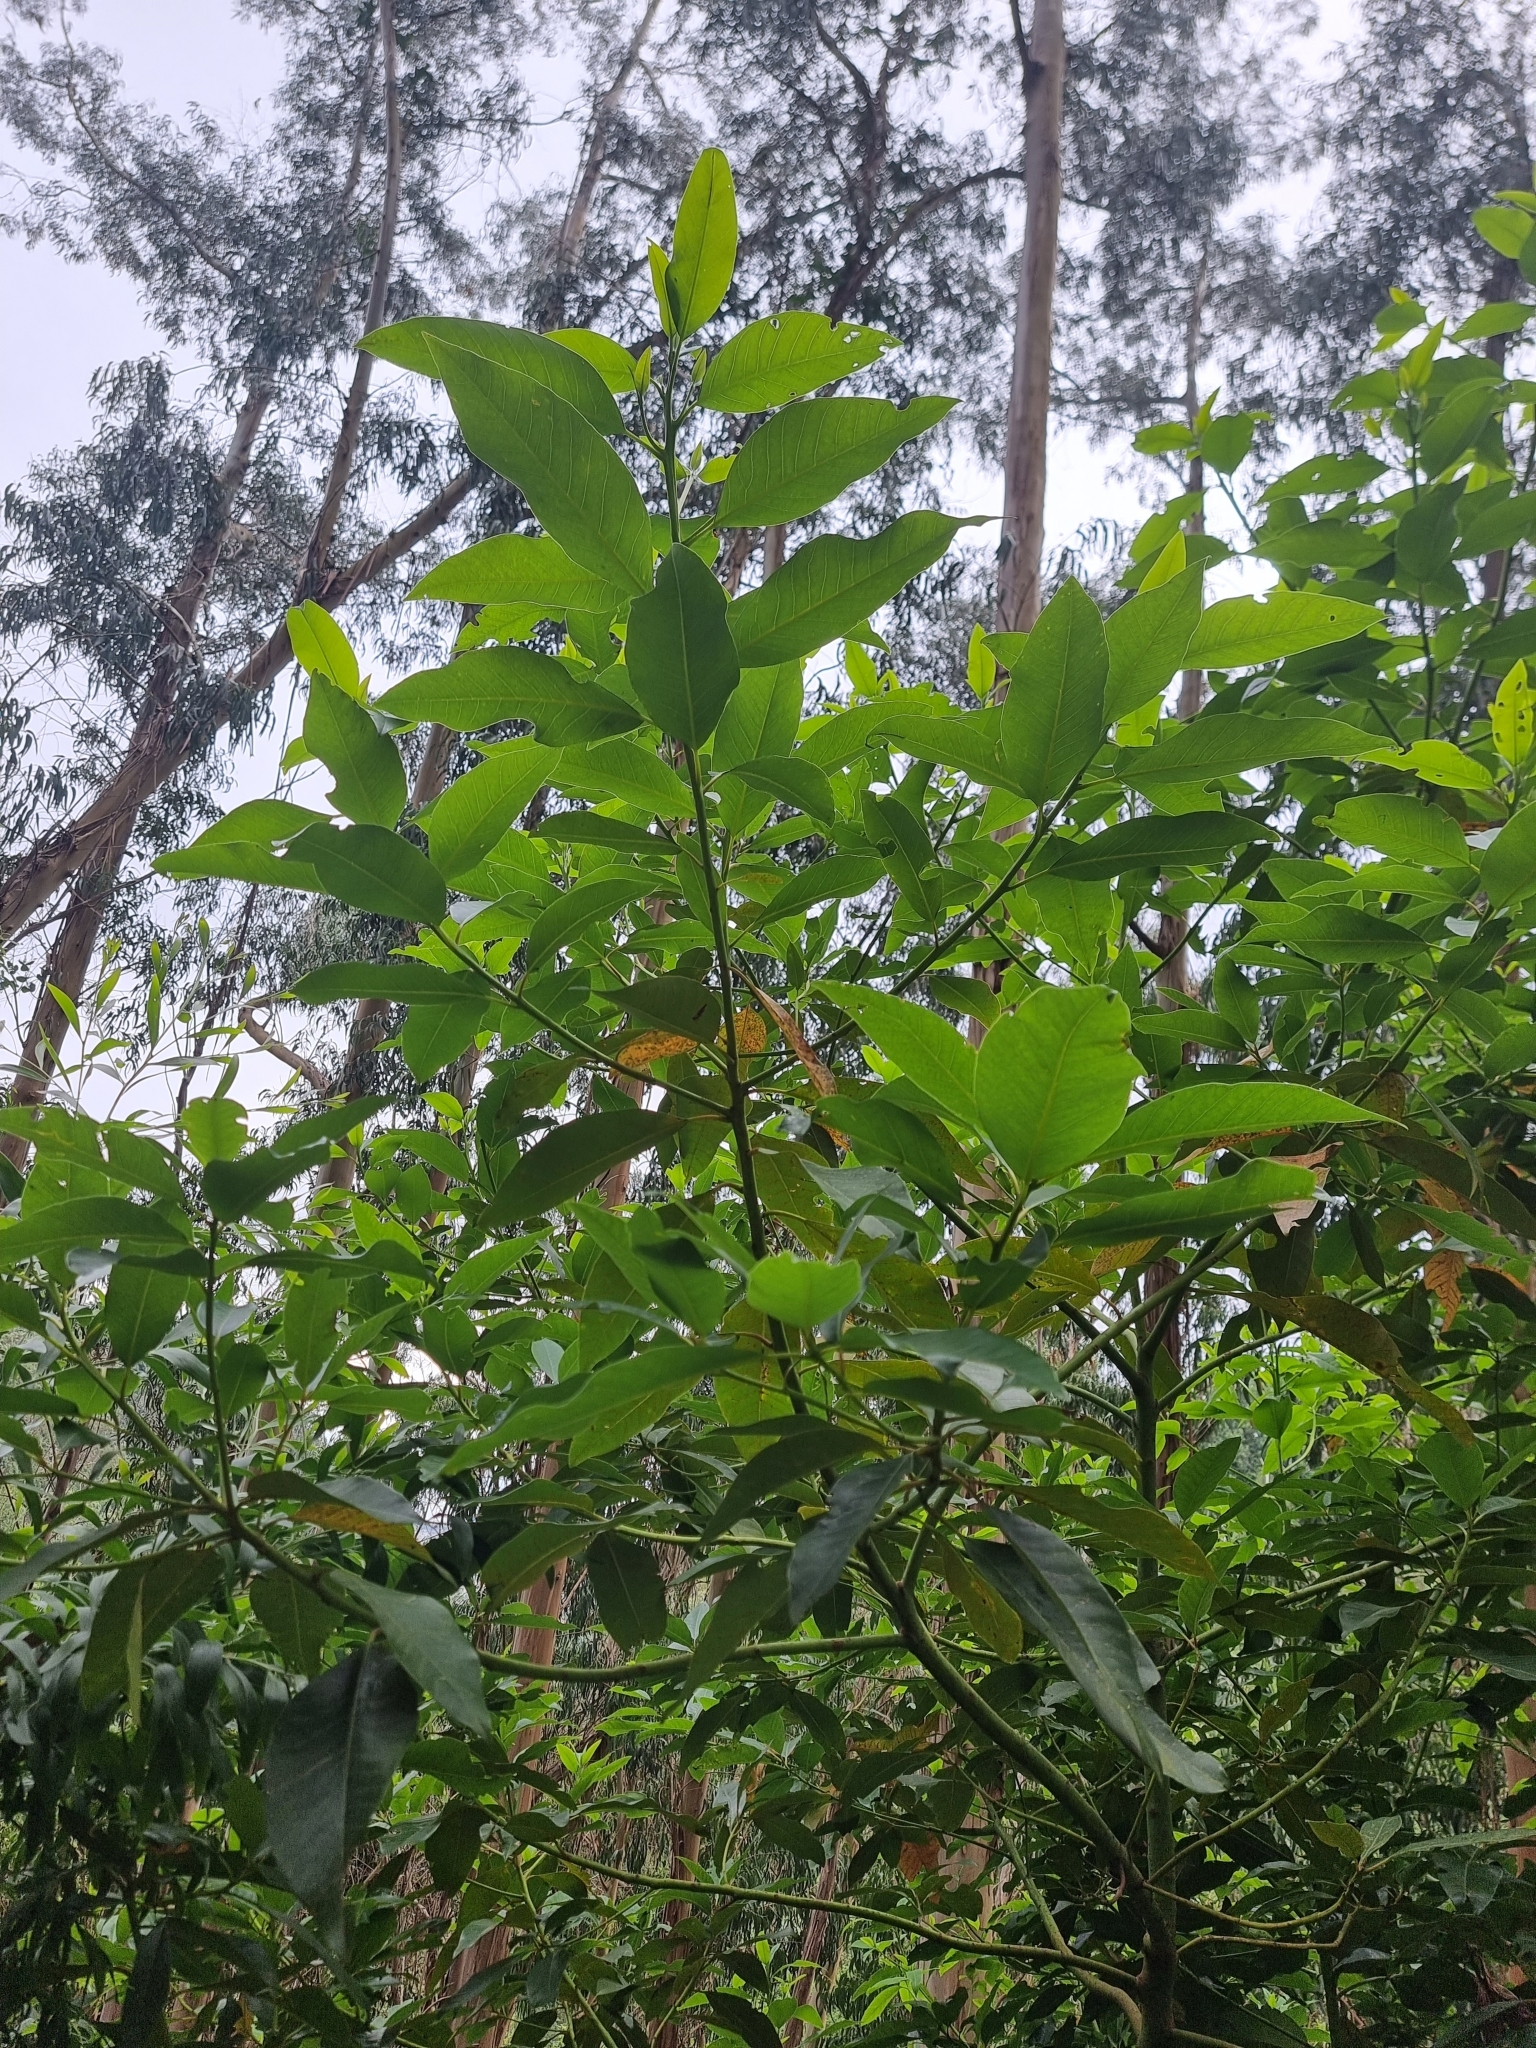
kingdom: Plantae
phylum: Tracheophyta
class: Magnoliopsida
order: Laurales
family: Lauraceae
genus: Persea
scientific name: Persea indica
